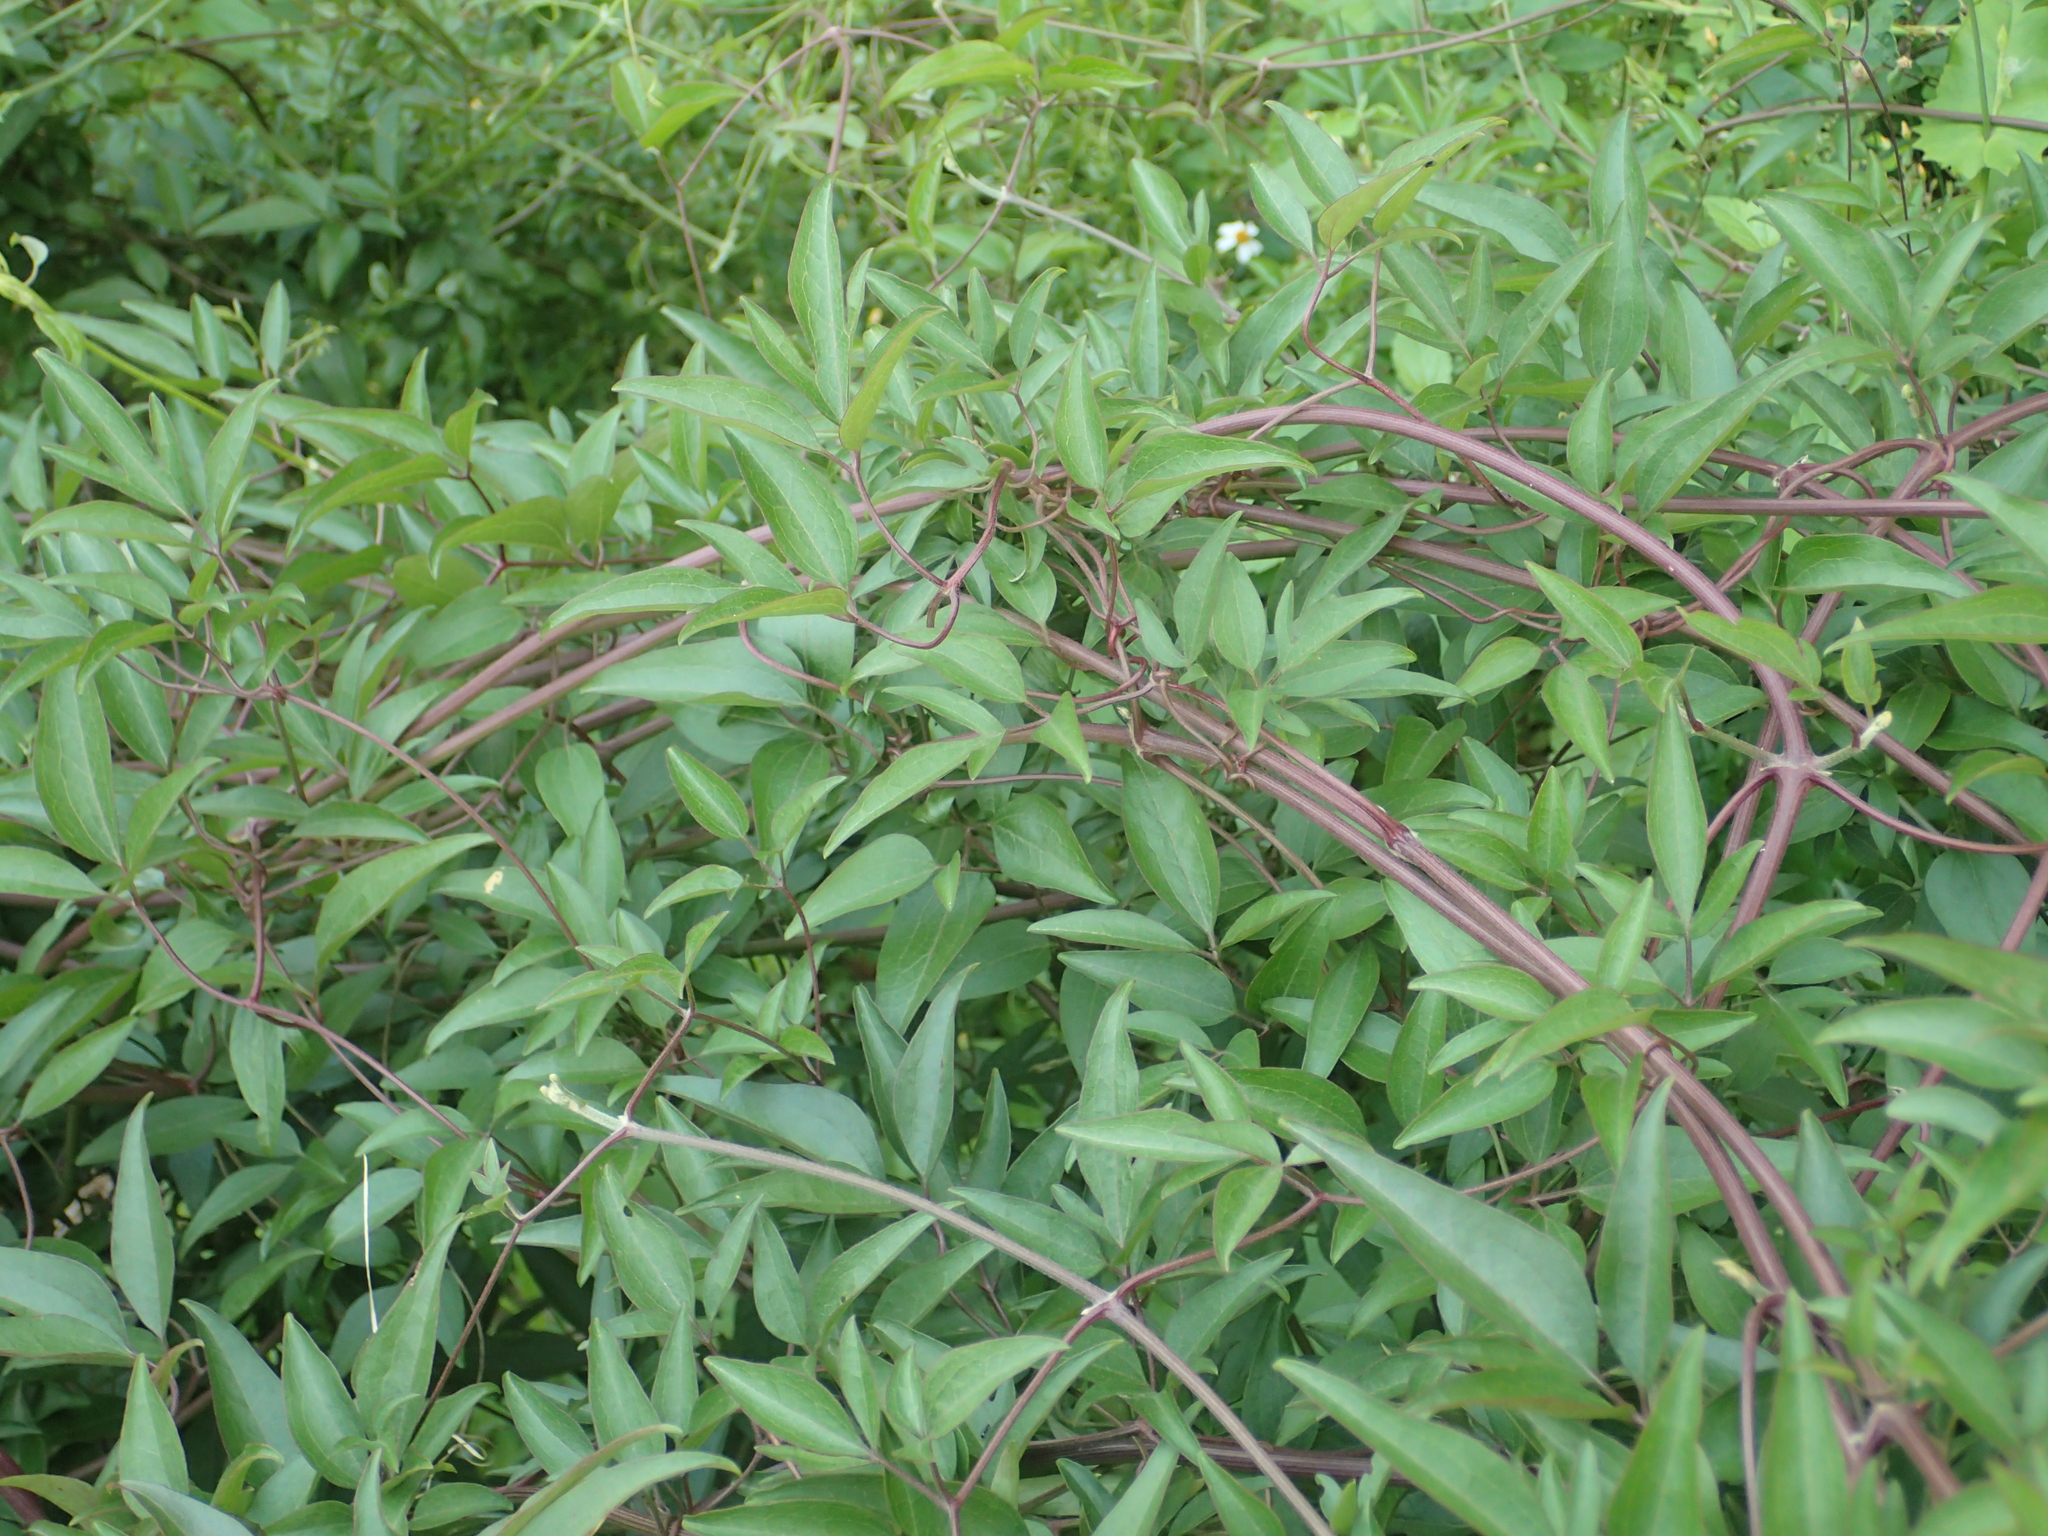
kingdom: Plantae
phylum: Tracheophyta
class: Magnoliopsida
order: Ranunculales
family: Ranunculaceae
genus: Clematis
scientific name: Clematis chinensis
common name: Chinese clematis
